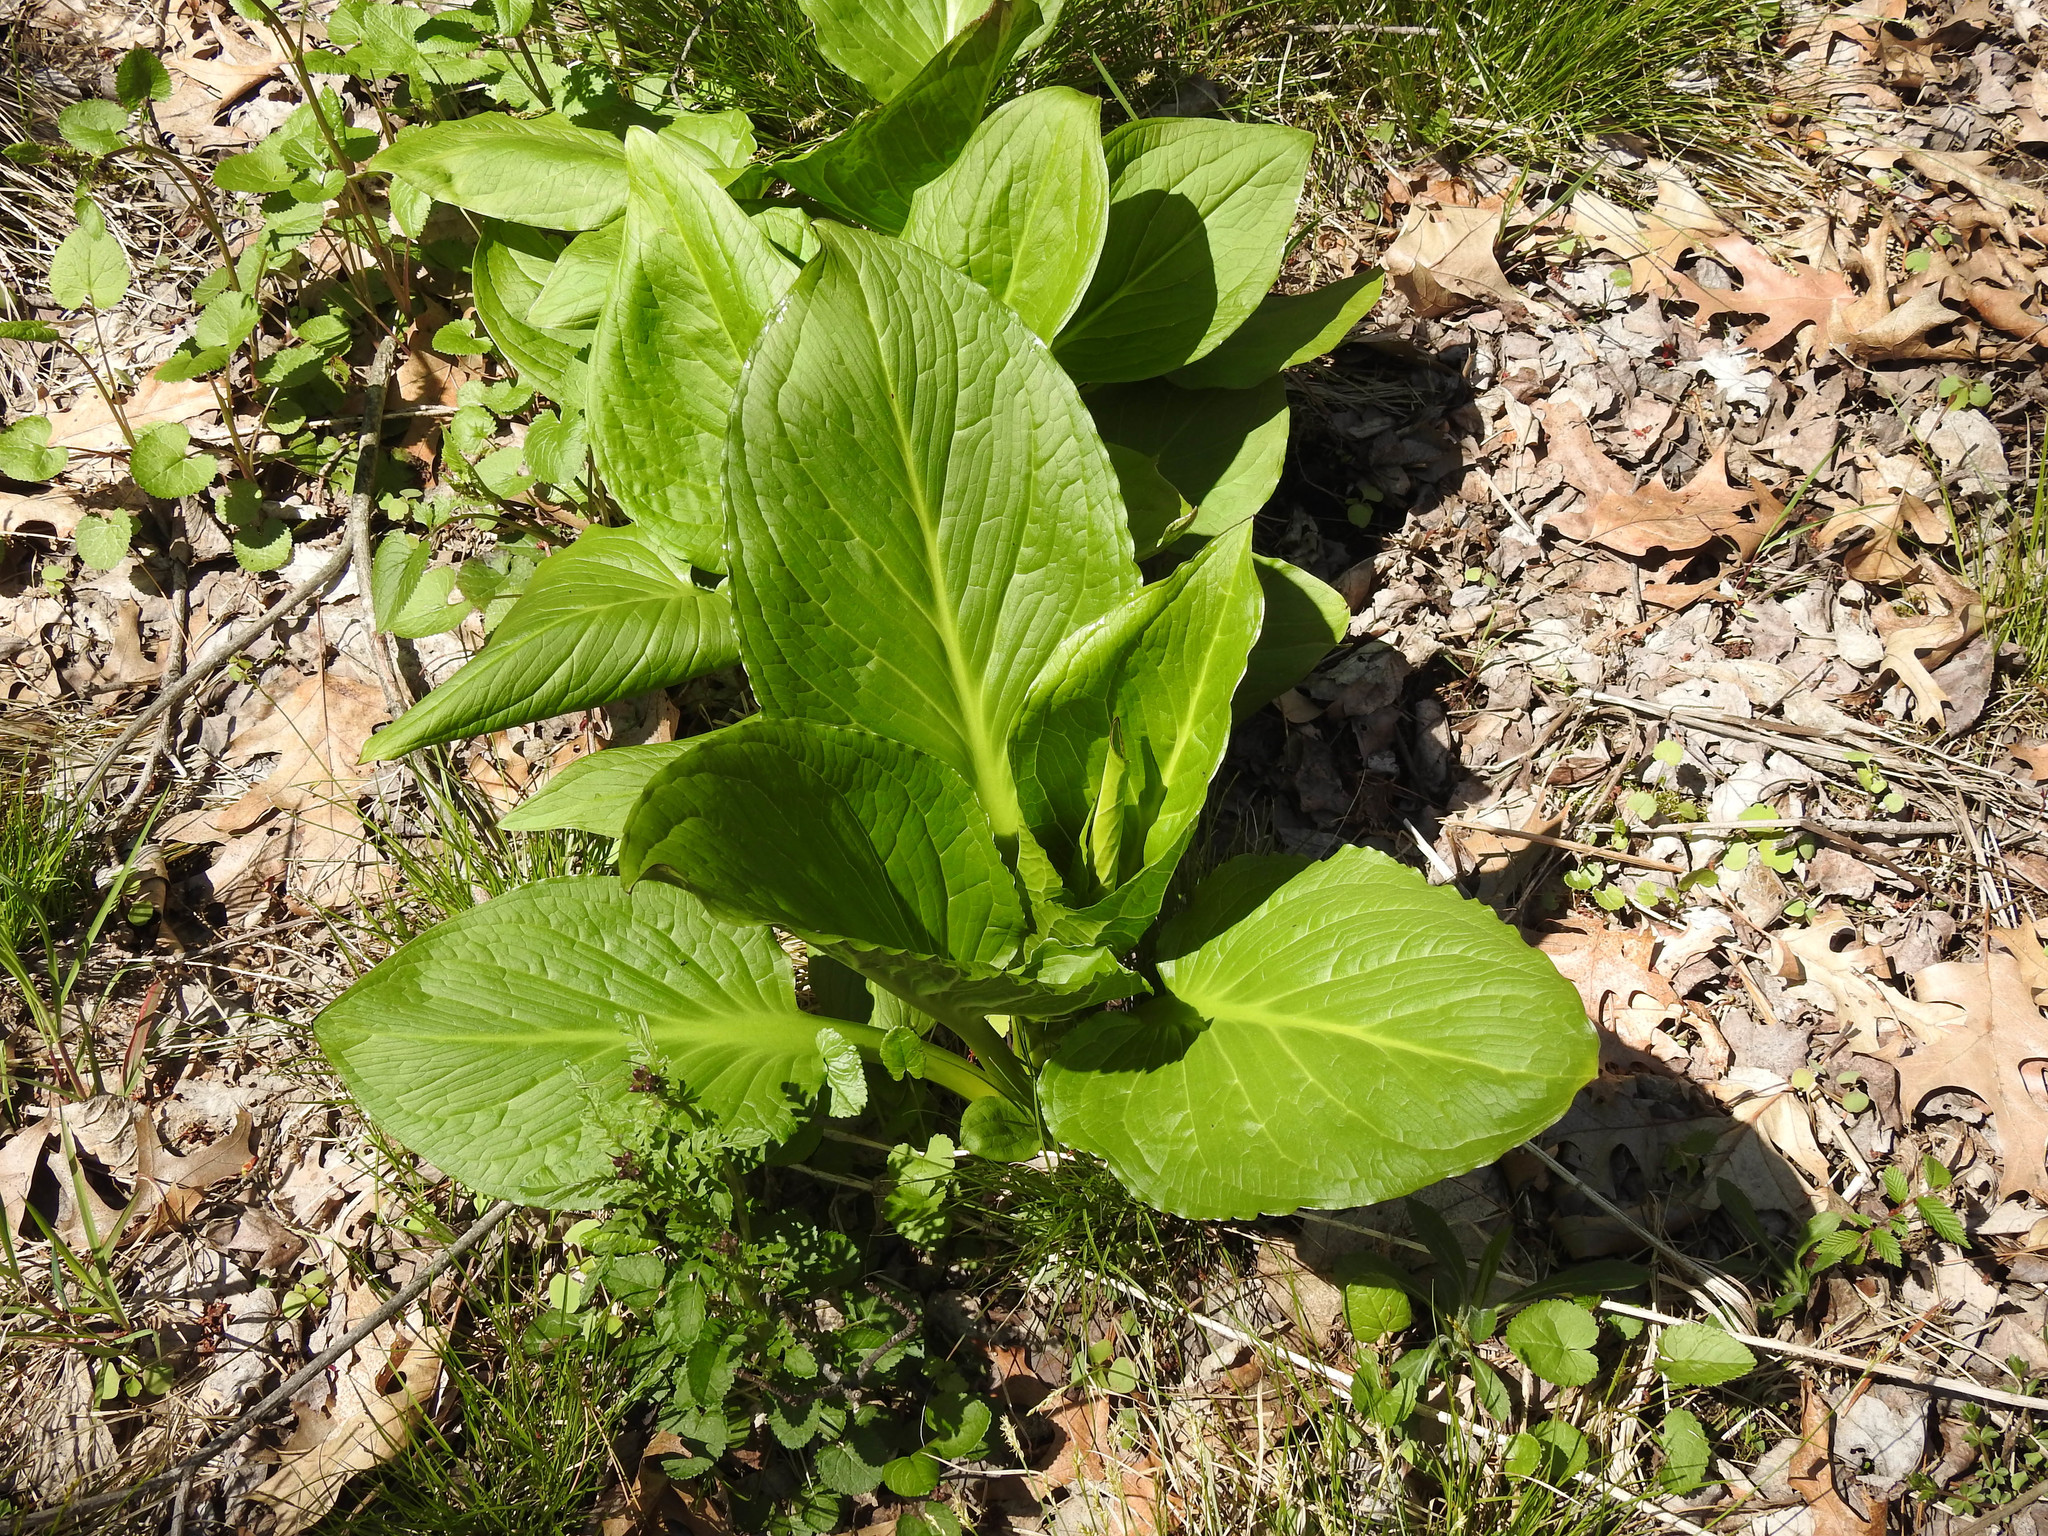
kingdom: Plantae
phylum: Tracheophyta
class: Liliopsida
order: Alismatales
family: Araceae
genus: Symplocarpus
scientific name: Symplocarpus foetidus
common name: Eastern skunk cabbage
